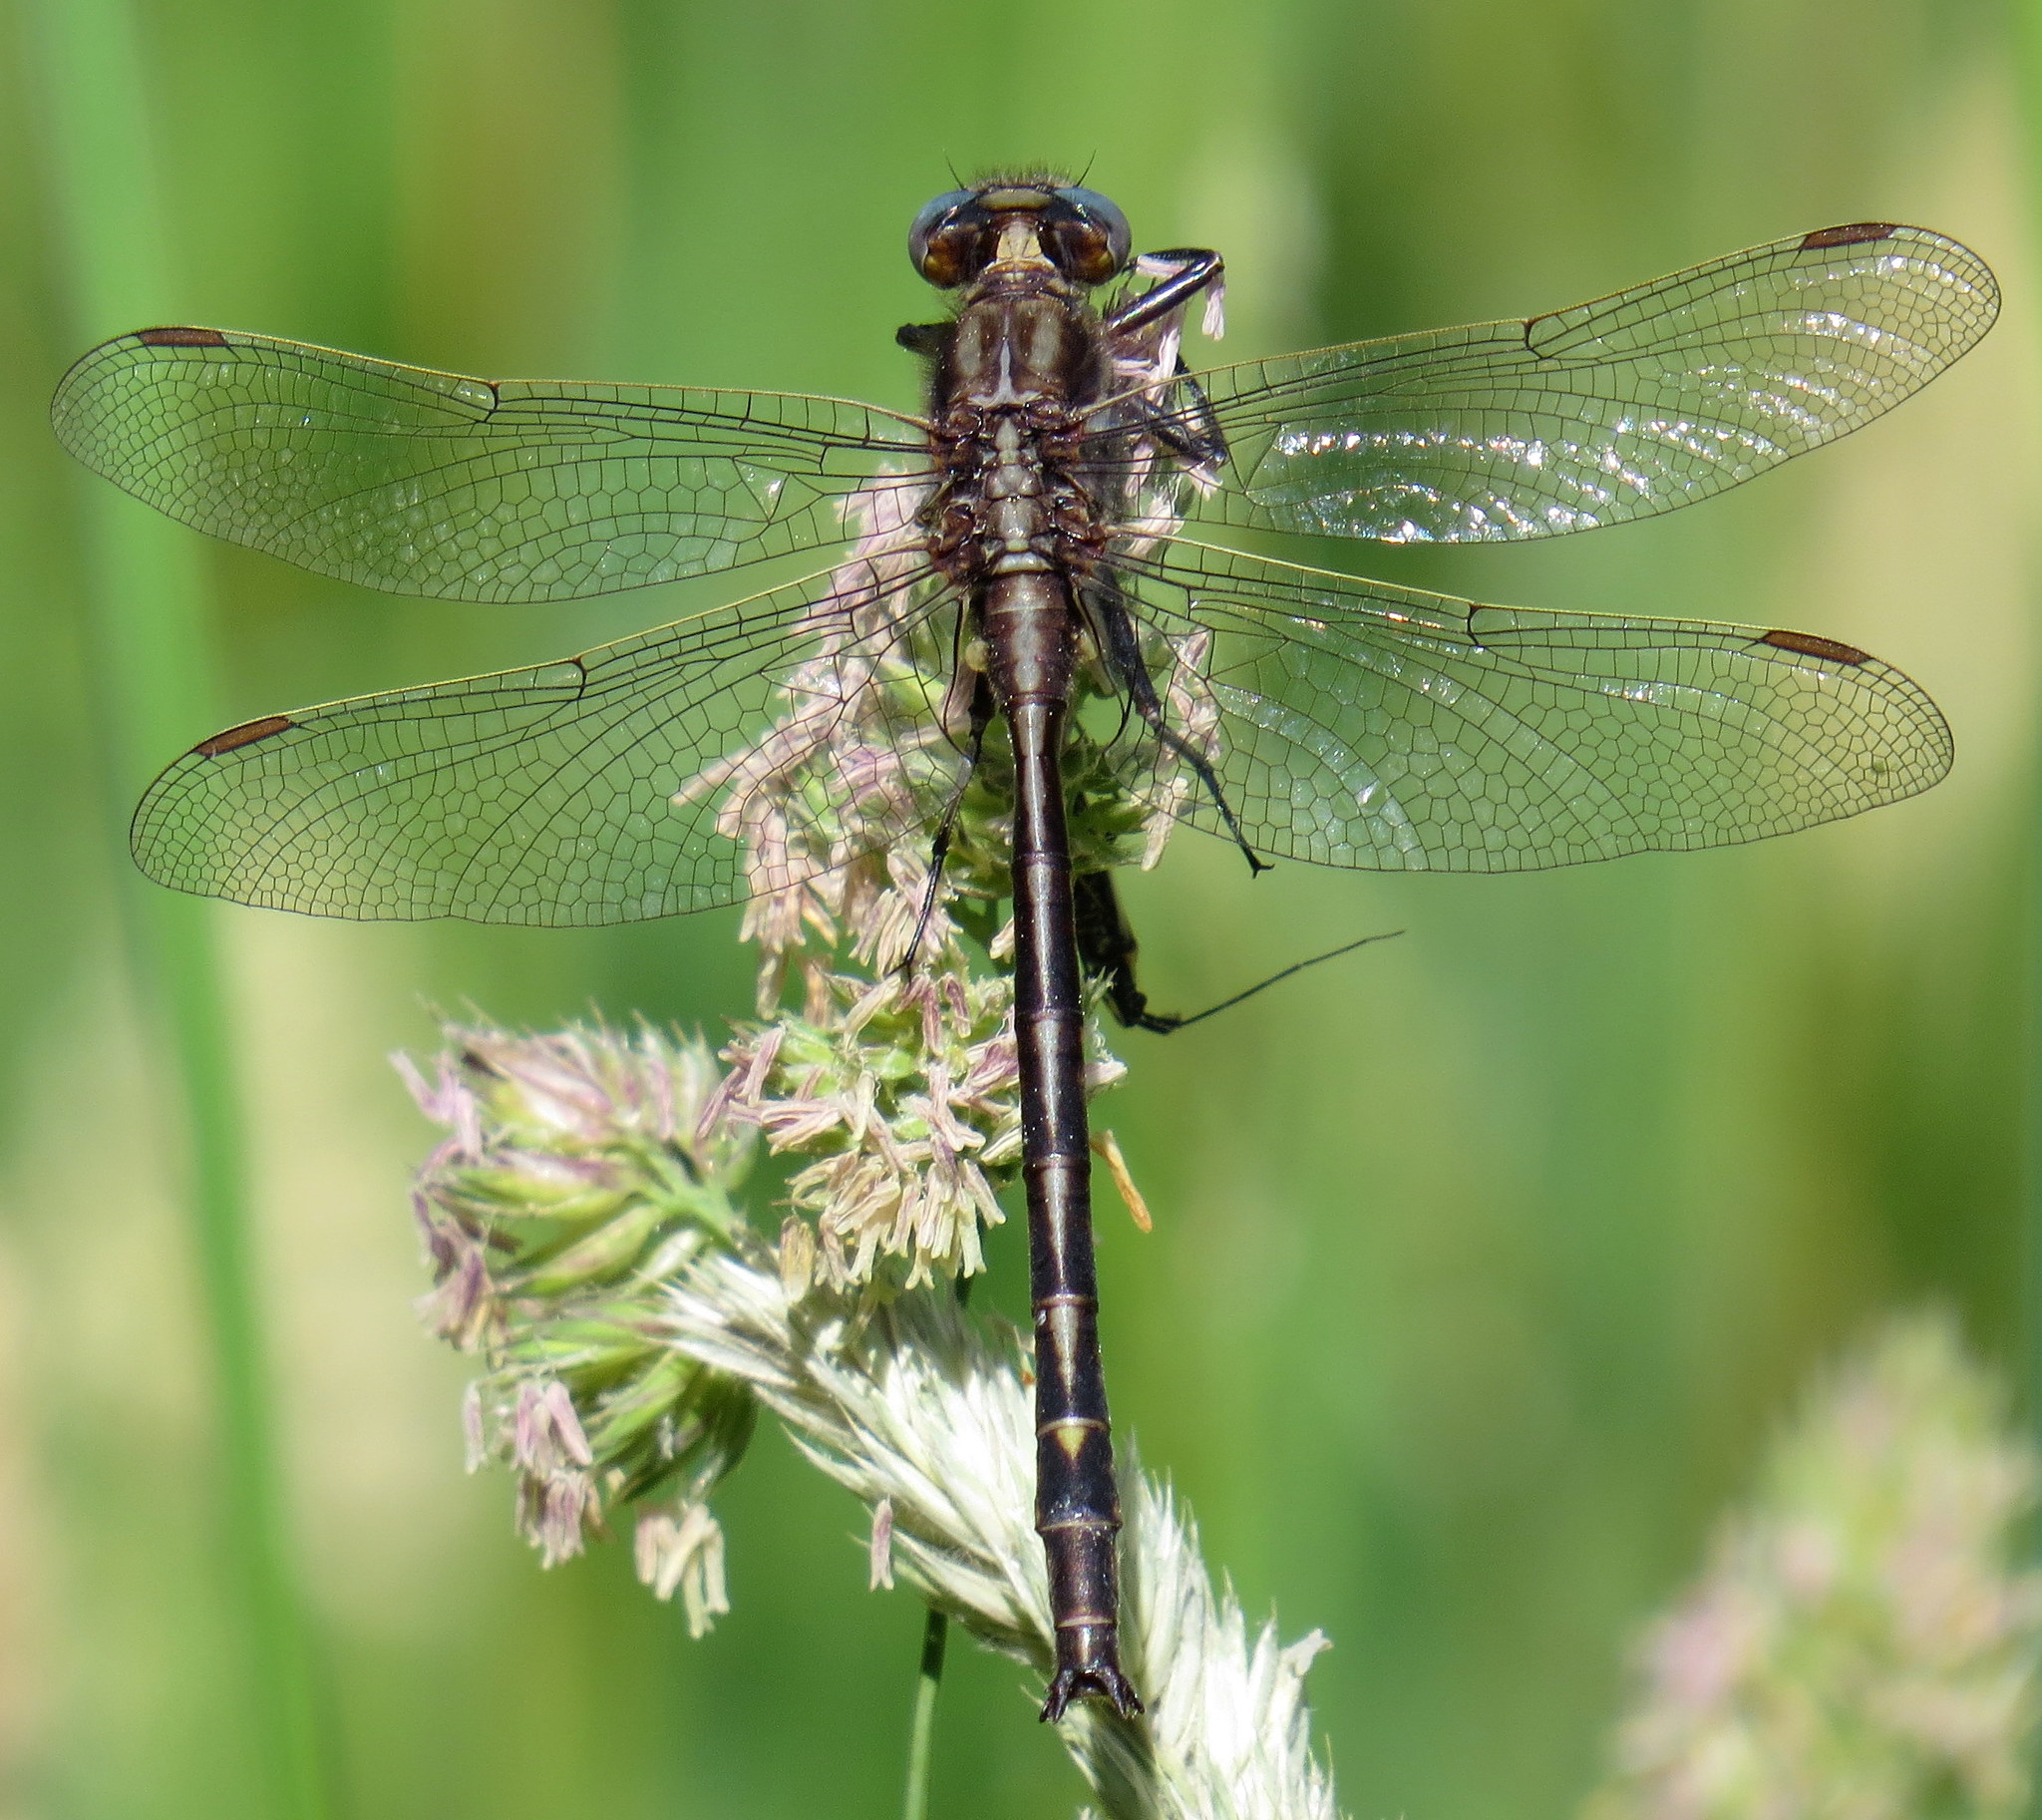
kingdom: Animalia
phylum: Arthropoda
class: Insecta
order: Odonata
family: Gomphidae
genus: Phanogomphus
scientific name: Phanogomphus spicatus
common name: Dusky clubtail
